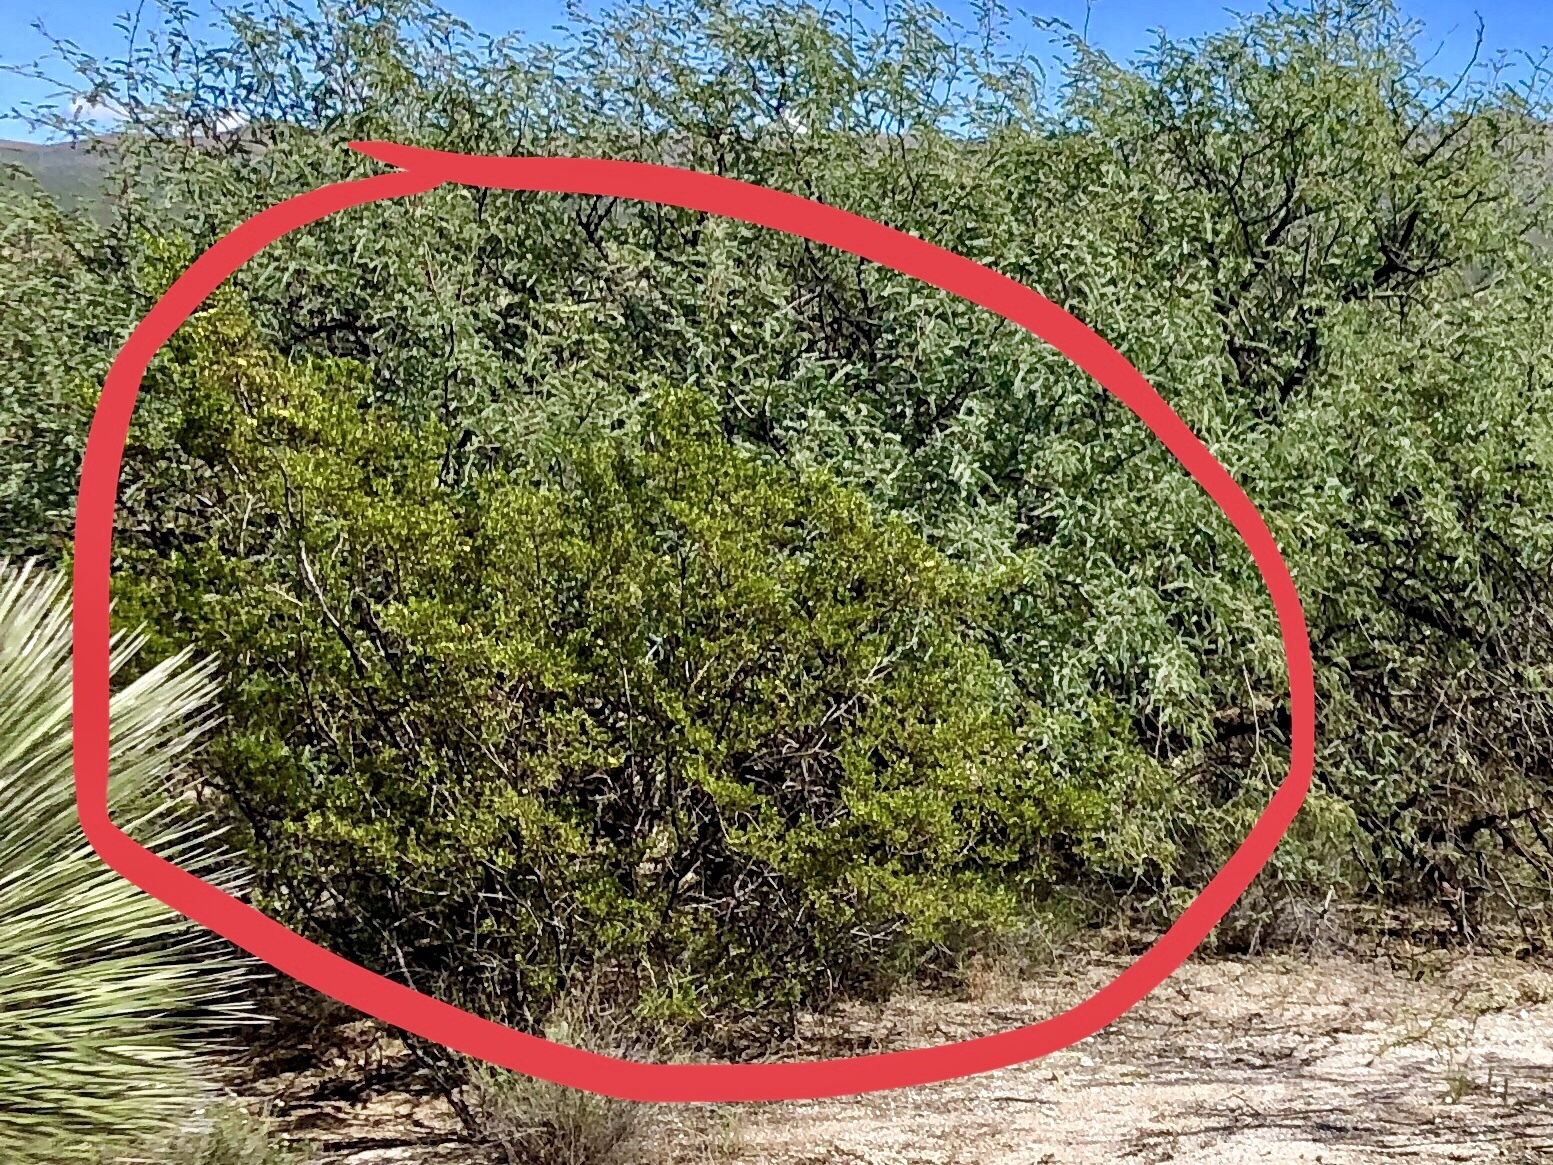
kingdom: Plantae
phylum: Tracheophyta
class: Magnoliopsida
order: Zygophyllales
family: Zygophyllaceae
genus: Larrea
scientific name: Larrea tridentata
